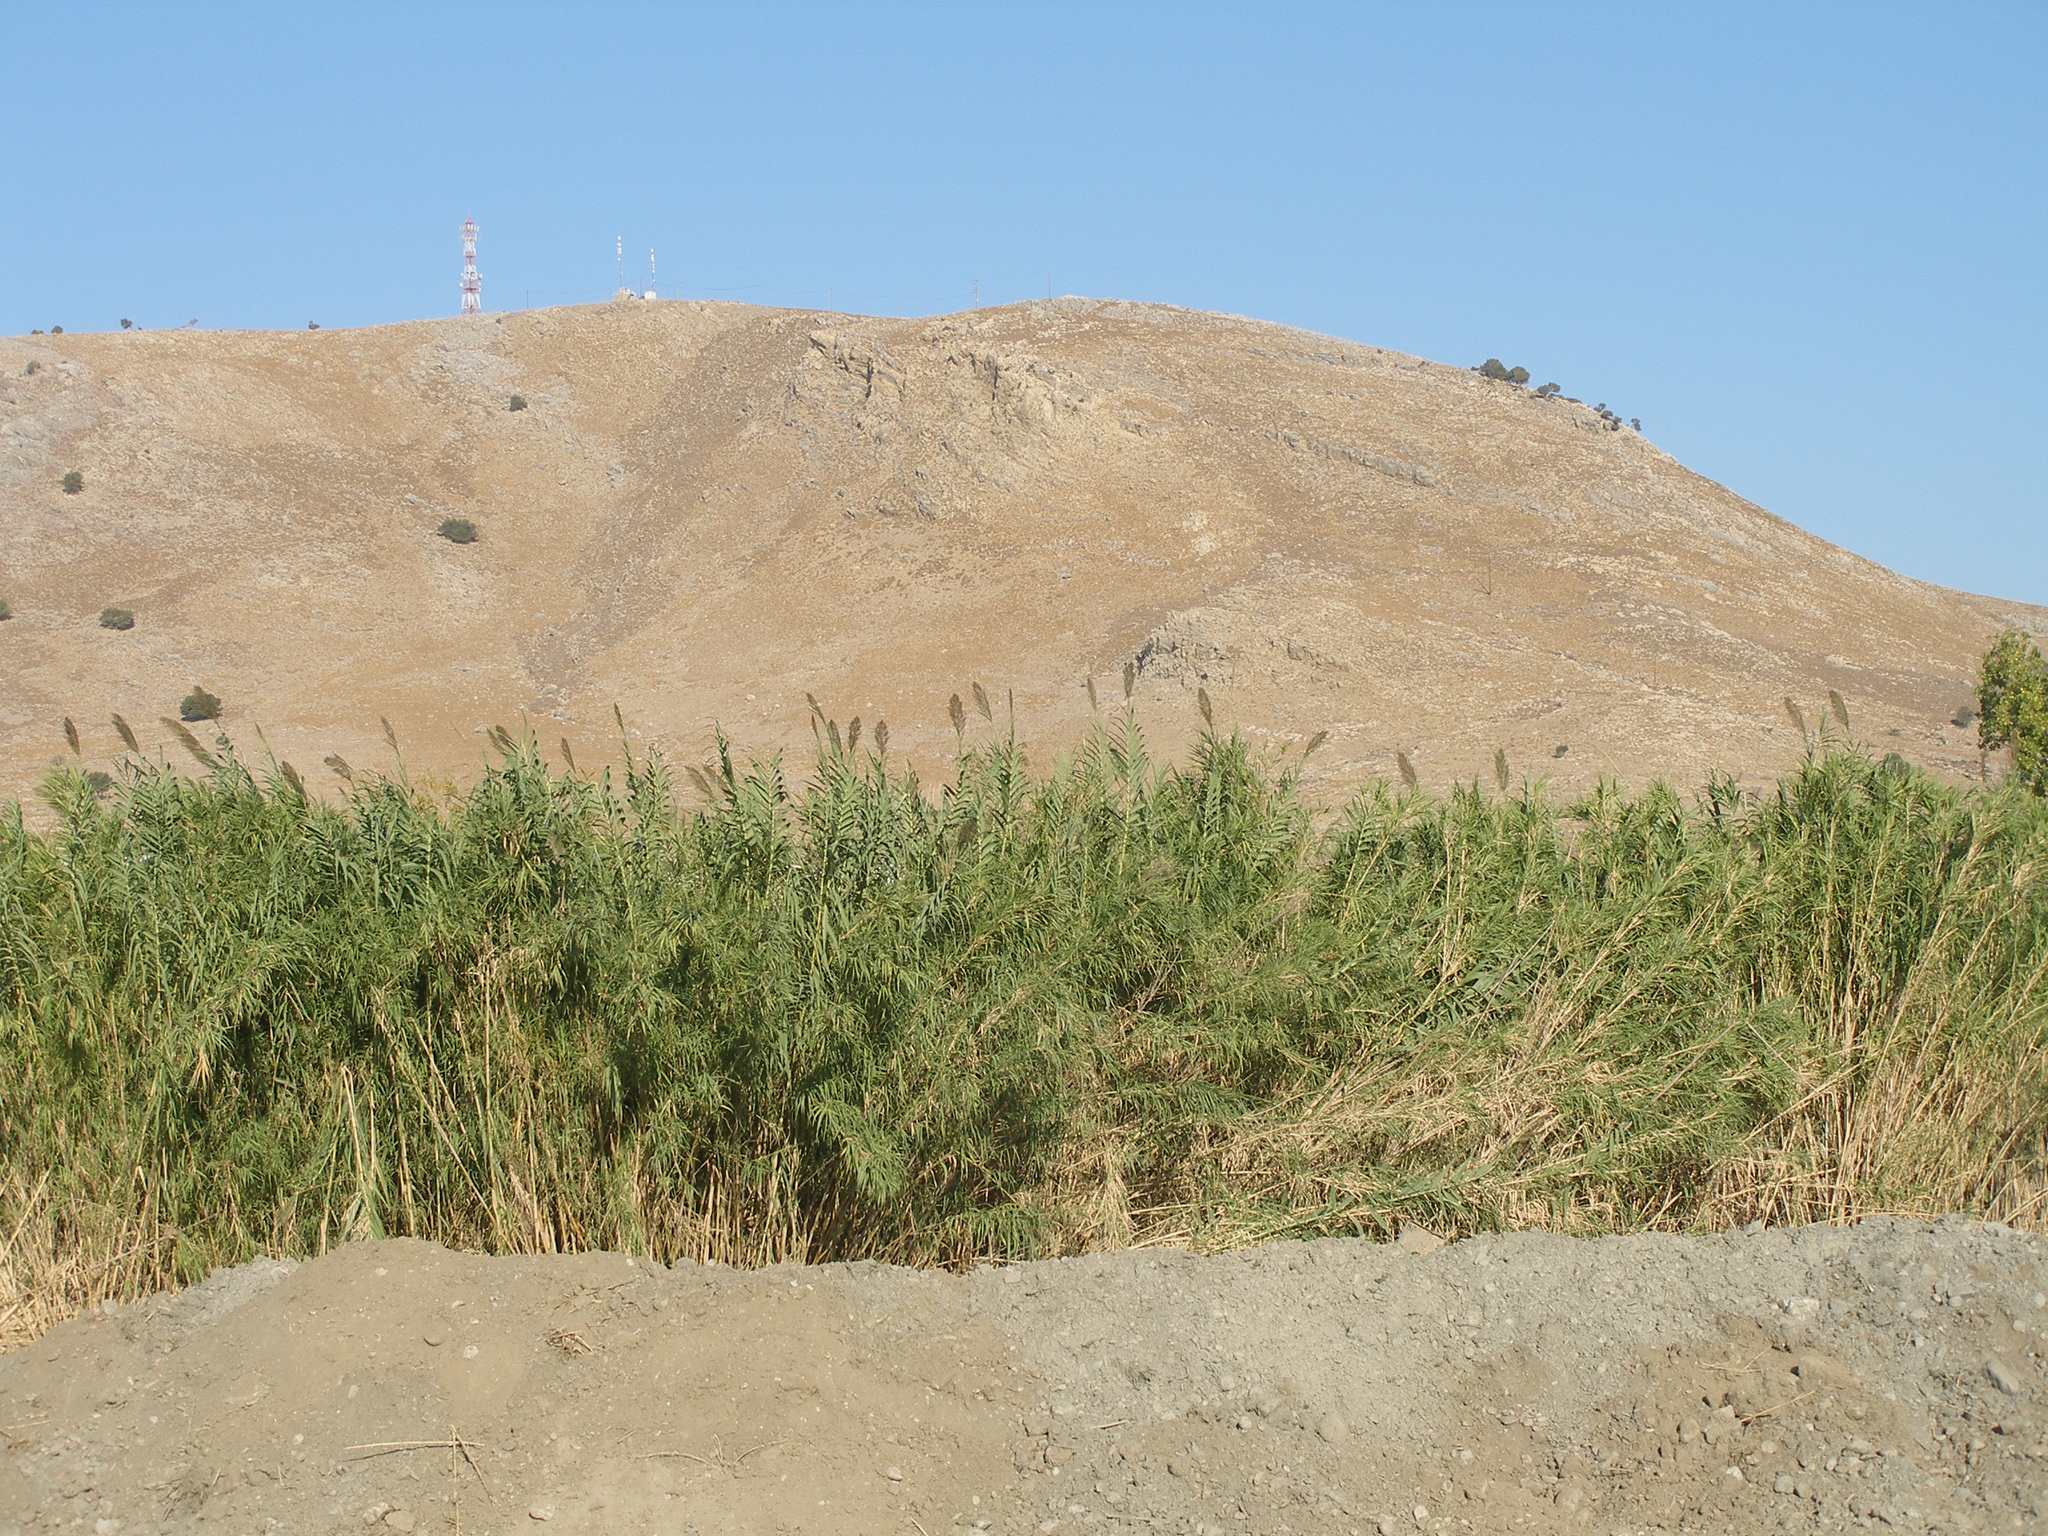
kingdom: Plantae
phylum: Tracheophyta
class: Liliopsida
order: Poales
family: Poaceae
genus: Arundo
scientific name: Arundo donax
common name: Giant reed
